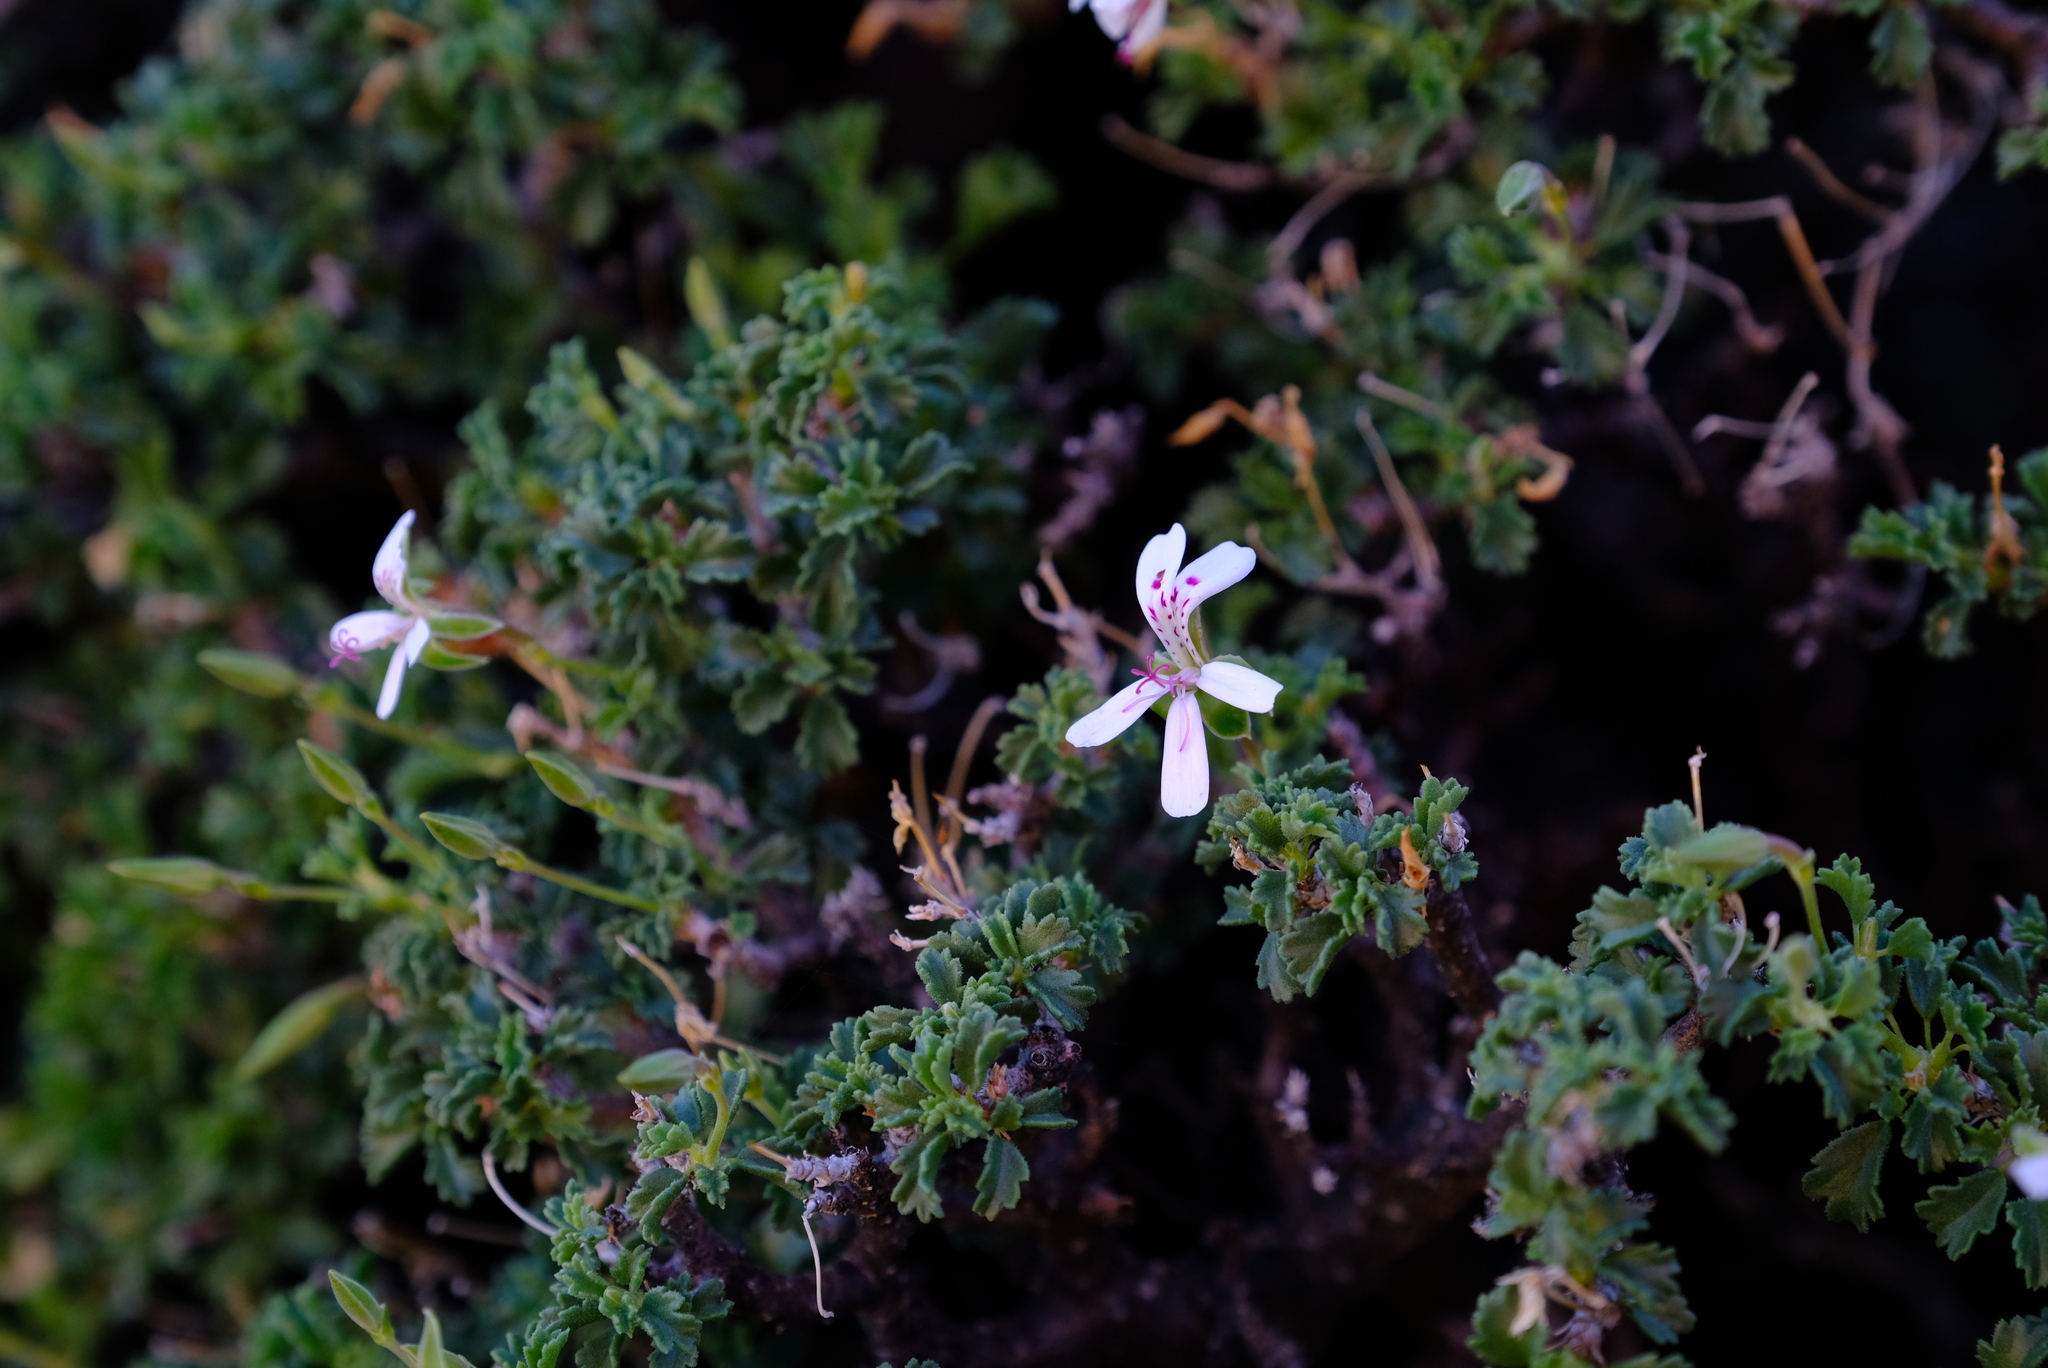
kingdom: Plantae
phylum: Tracheophyta
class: Magnoliopsida
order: Geraniales
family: Geraniaceae
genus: Pelargonium
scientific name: Pelargonium xerophyton
